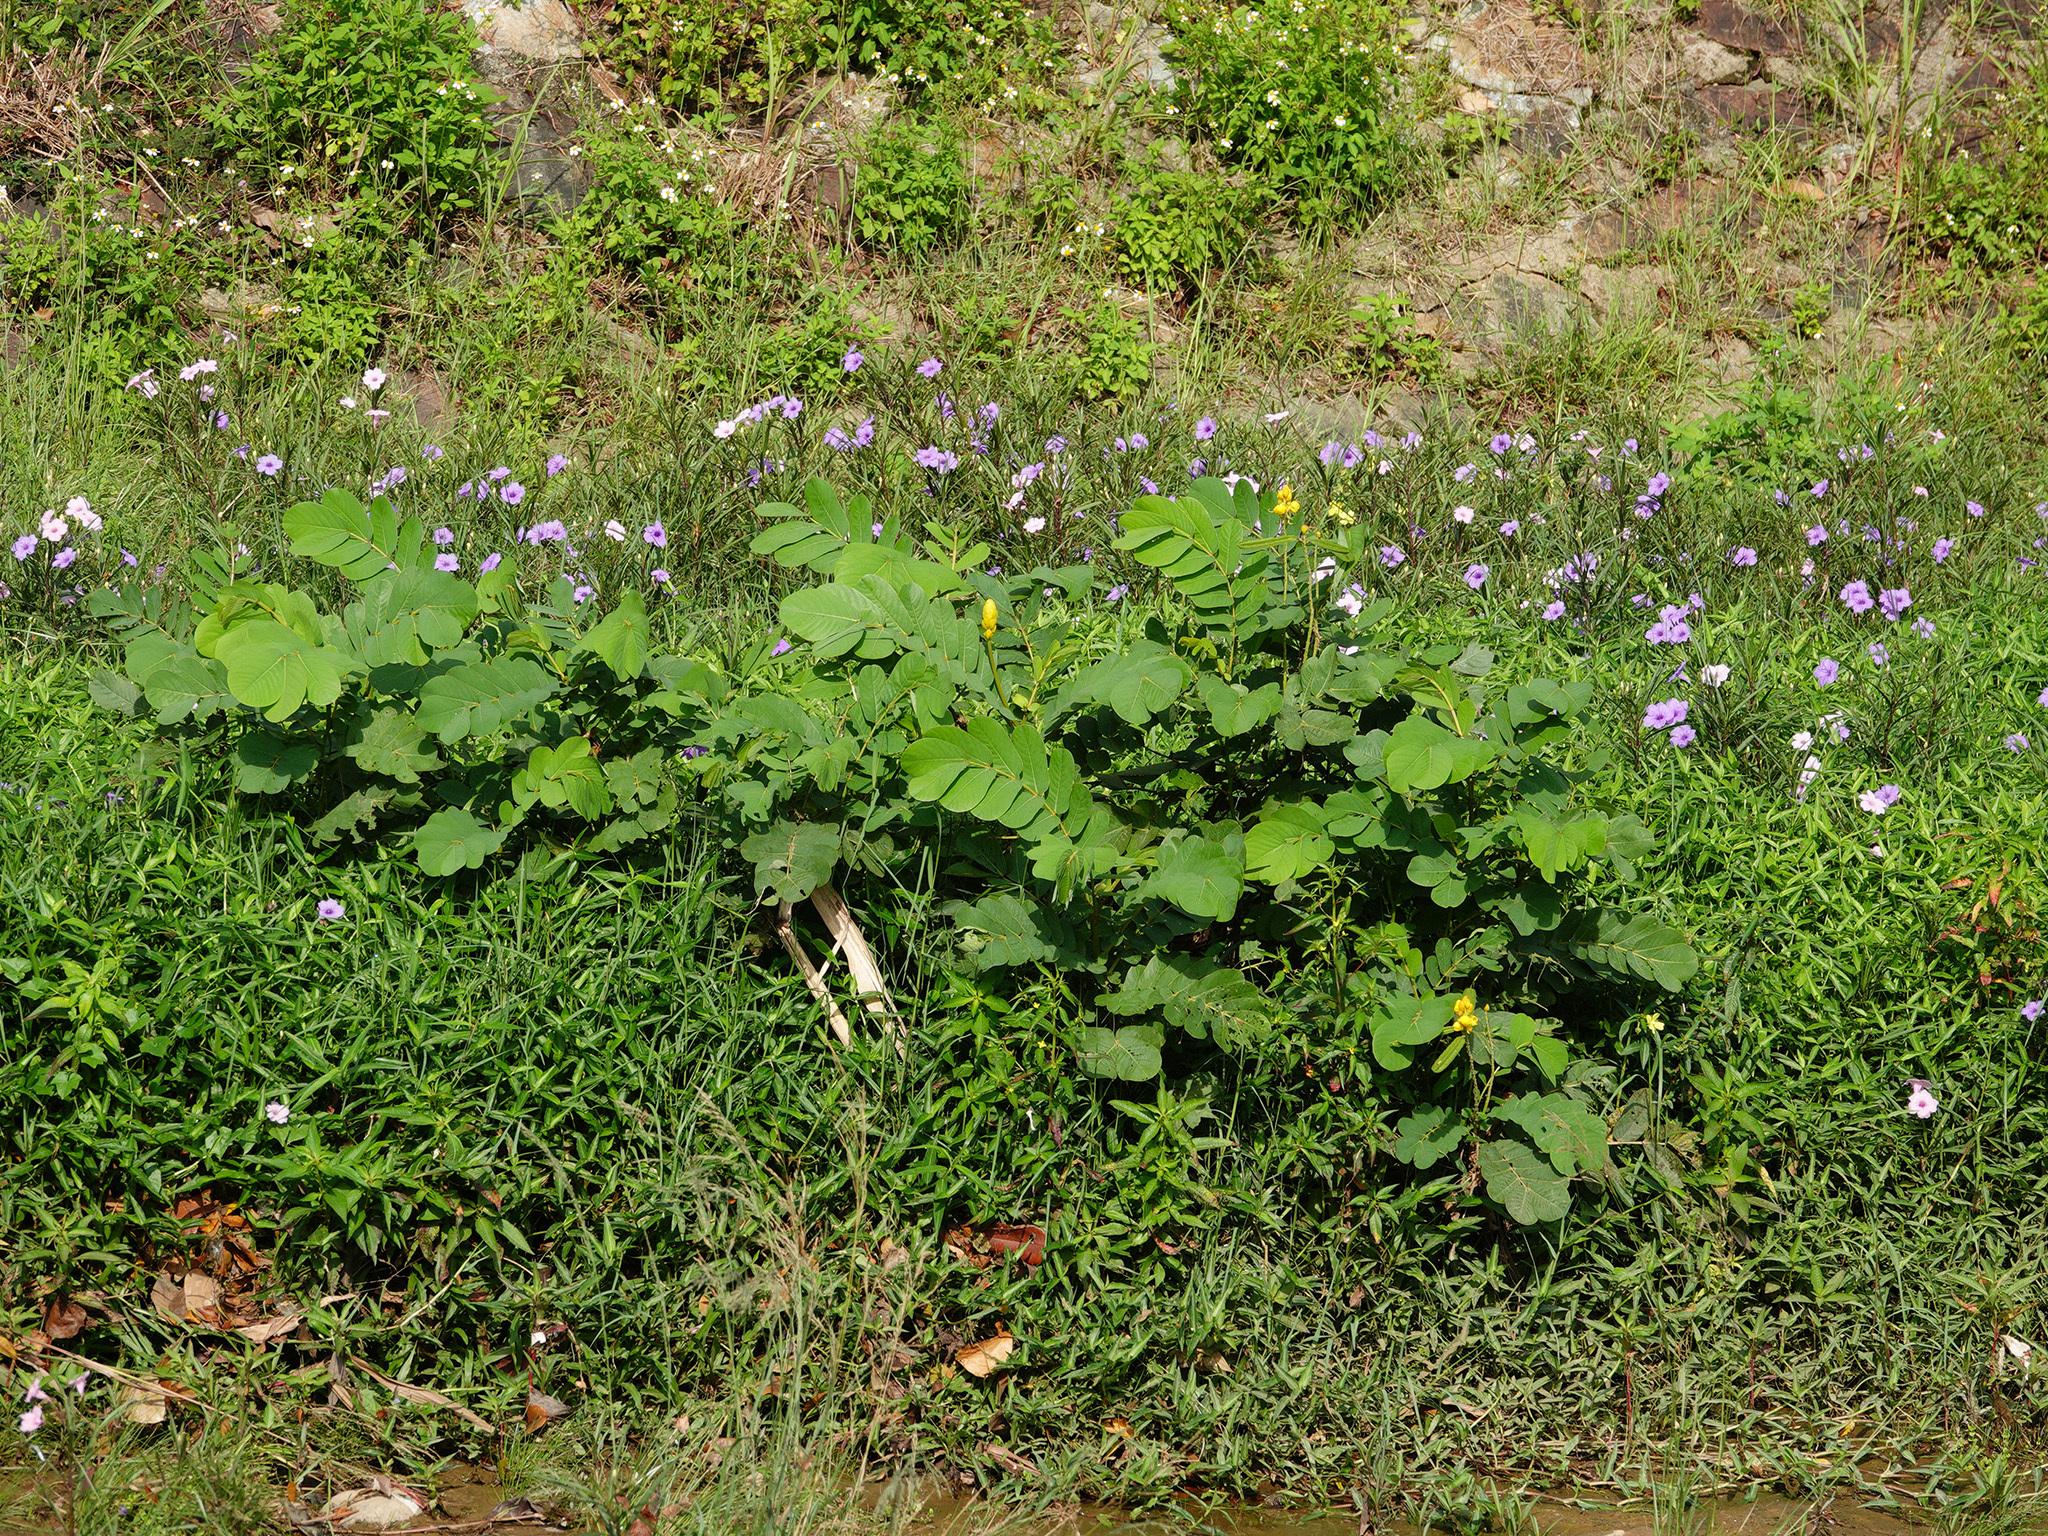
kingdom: Plantae
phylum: Tracheophyta
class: Magnoliopsida
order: Fabales
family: Fabaceae
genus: Senna
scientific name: Senna alata
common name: Emperor's candlesticks
